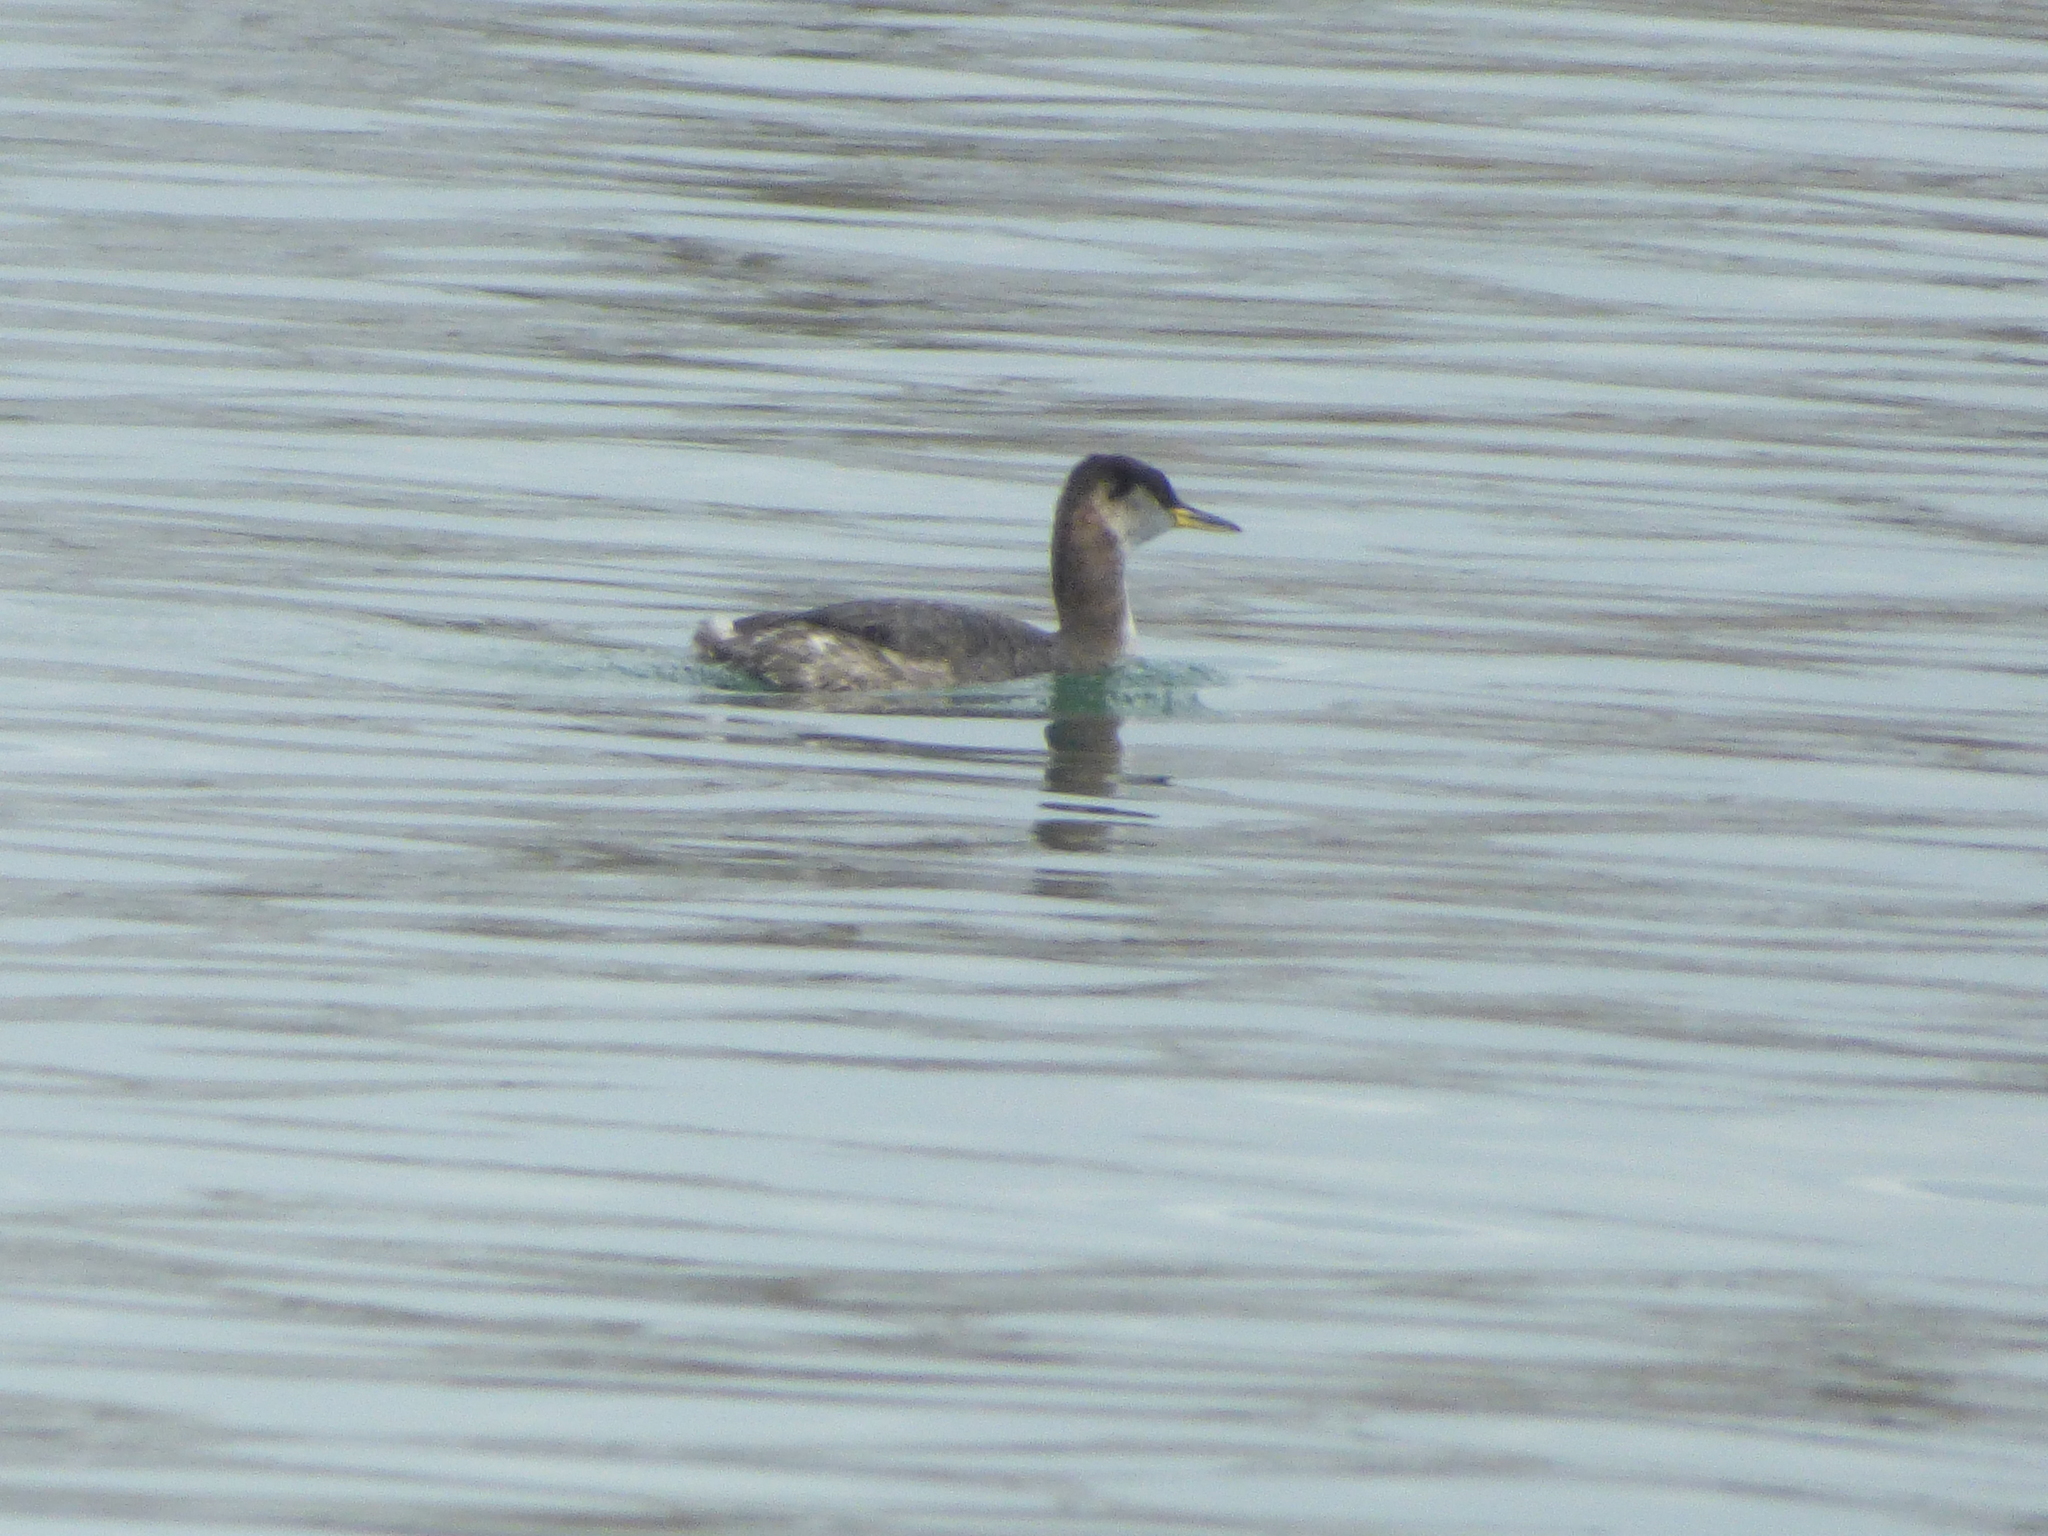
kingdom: Animalia
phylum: Chordata
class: Aves
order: Podicipediformes
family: Podicipedidae
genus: Podiceps
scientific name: Podiceps grisegena
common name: Red-necked grebe
